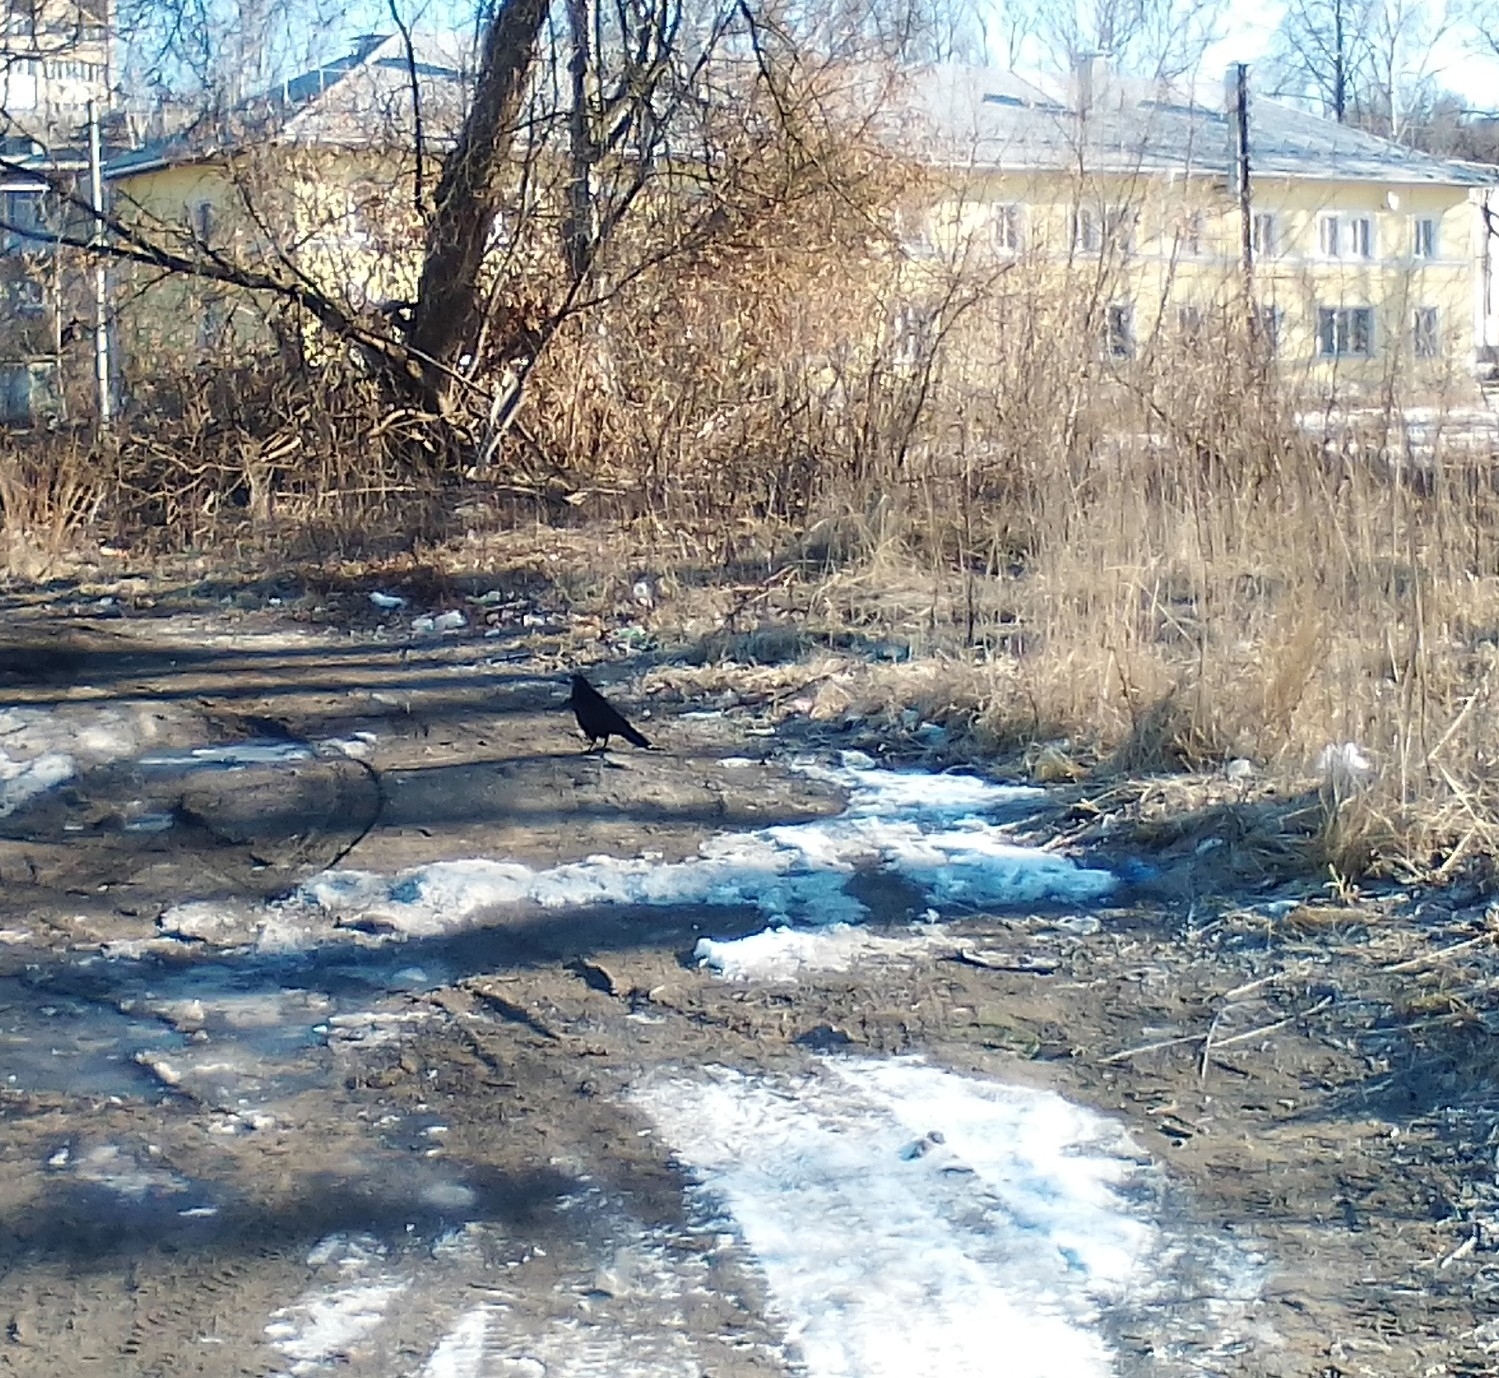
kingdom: Animalia
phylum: Chordata
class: Aves
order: Passeriformes
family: Corvidae
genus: Corvus
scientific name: Corvus frugilegus
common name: Rook
